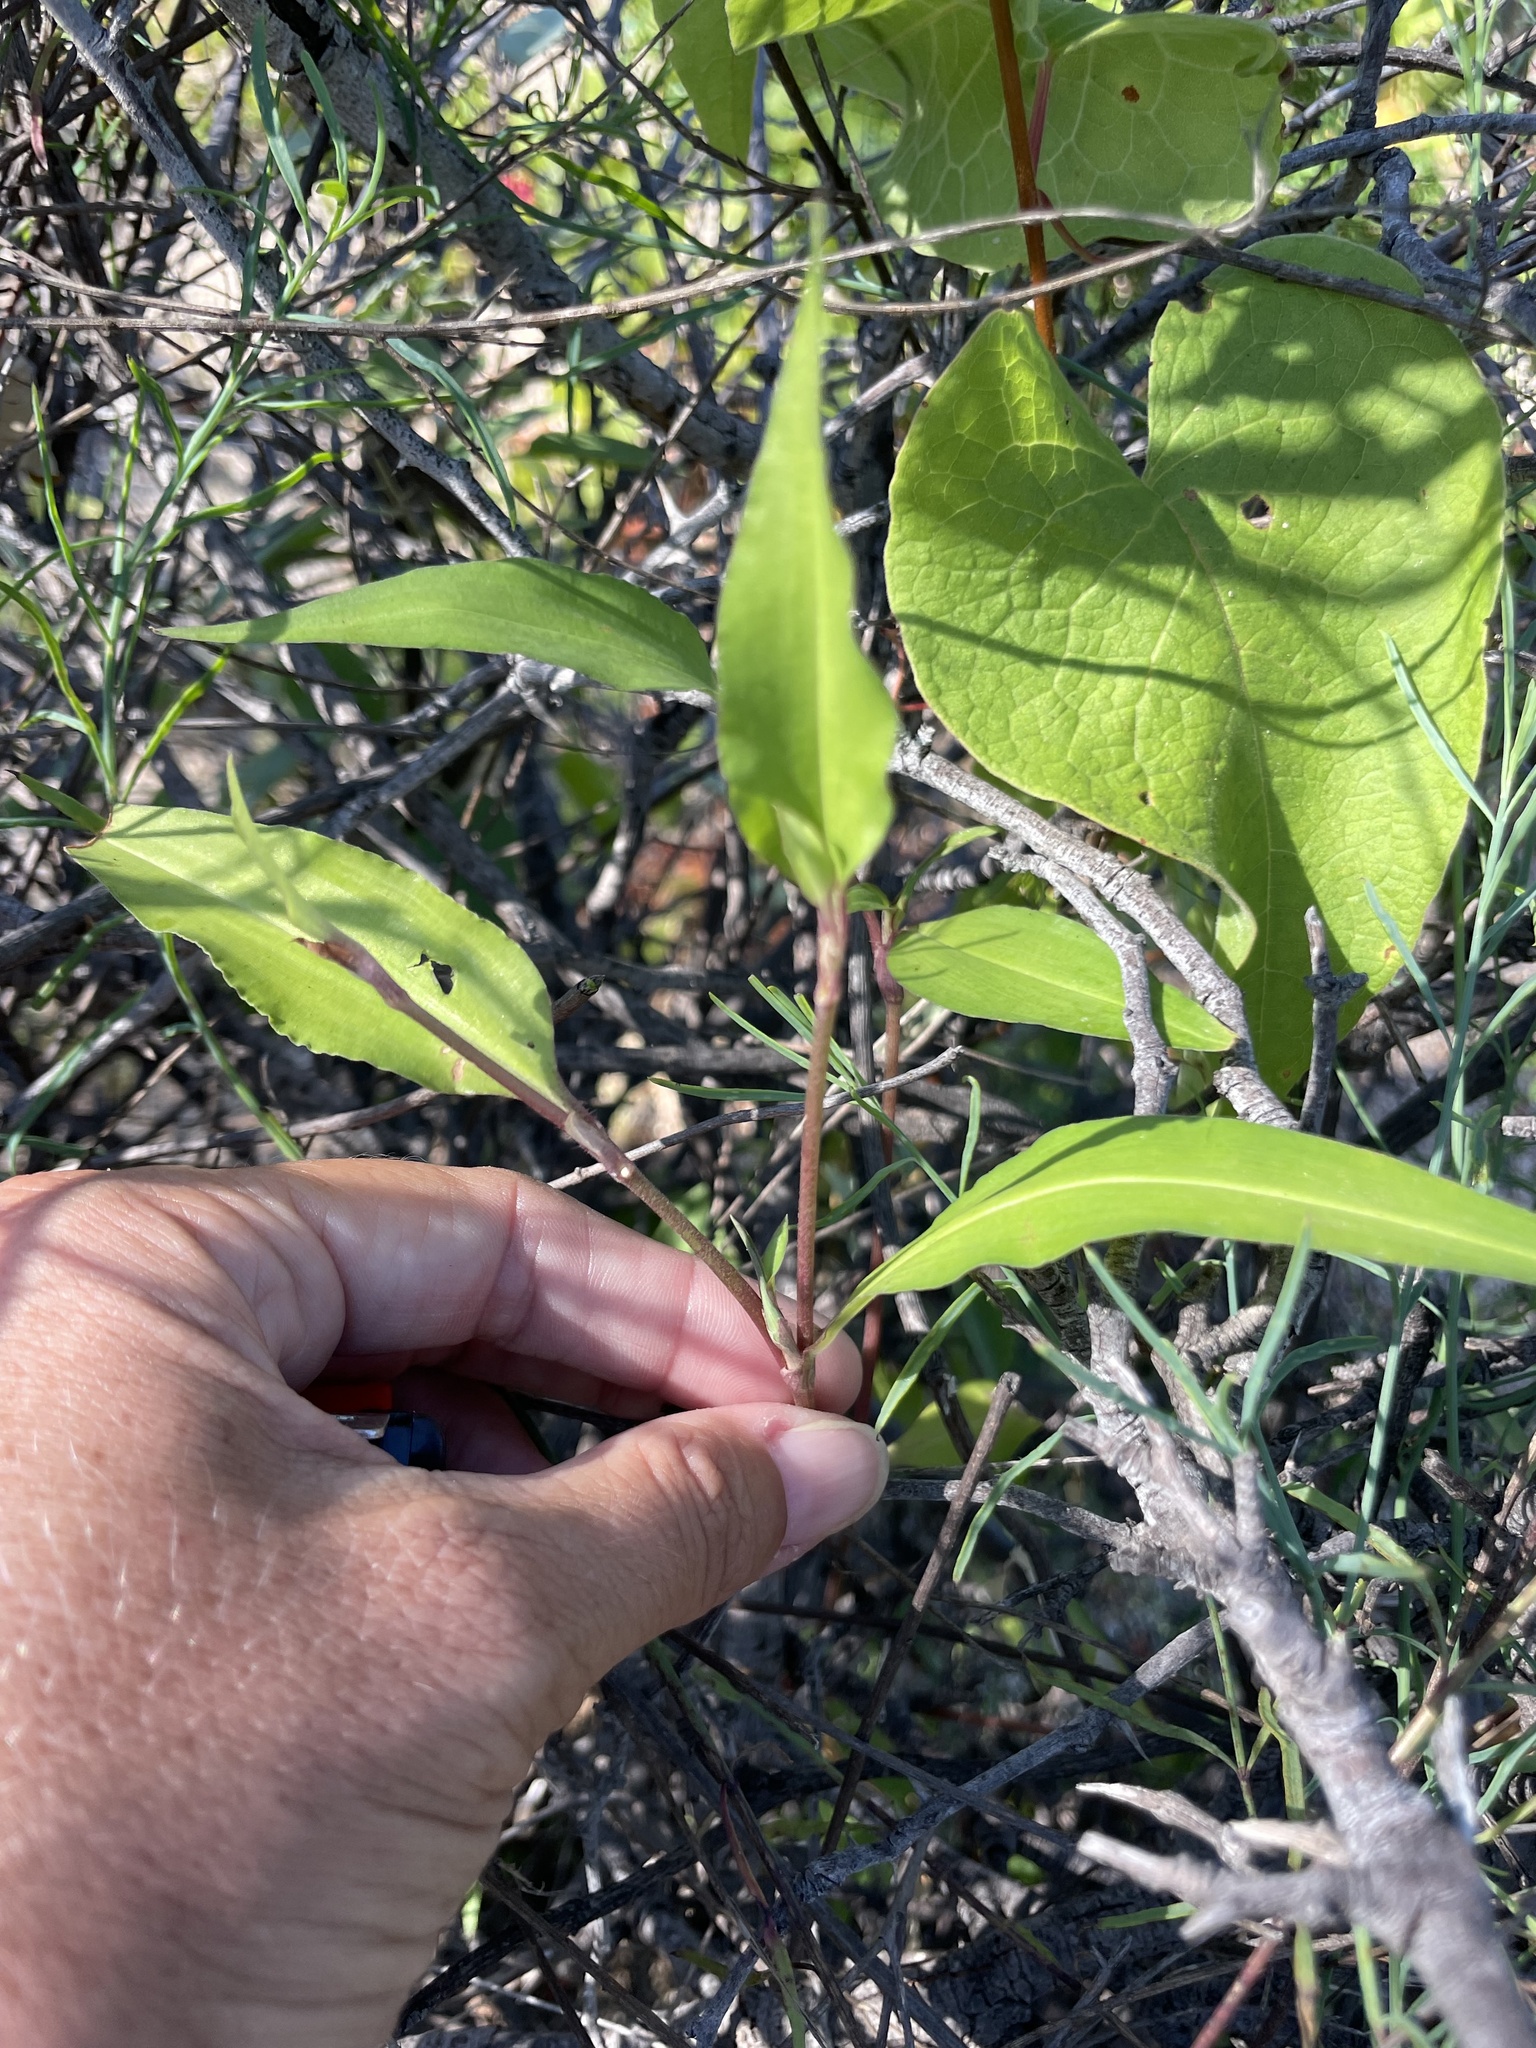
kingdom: Plantae
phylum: Tracheophyta
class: Liliopsida
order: Commelinales
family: Commelinaceae
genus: Commelina
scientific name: Commelina erecta
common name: Blousel blommetjie
